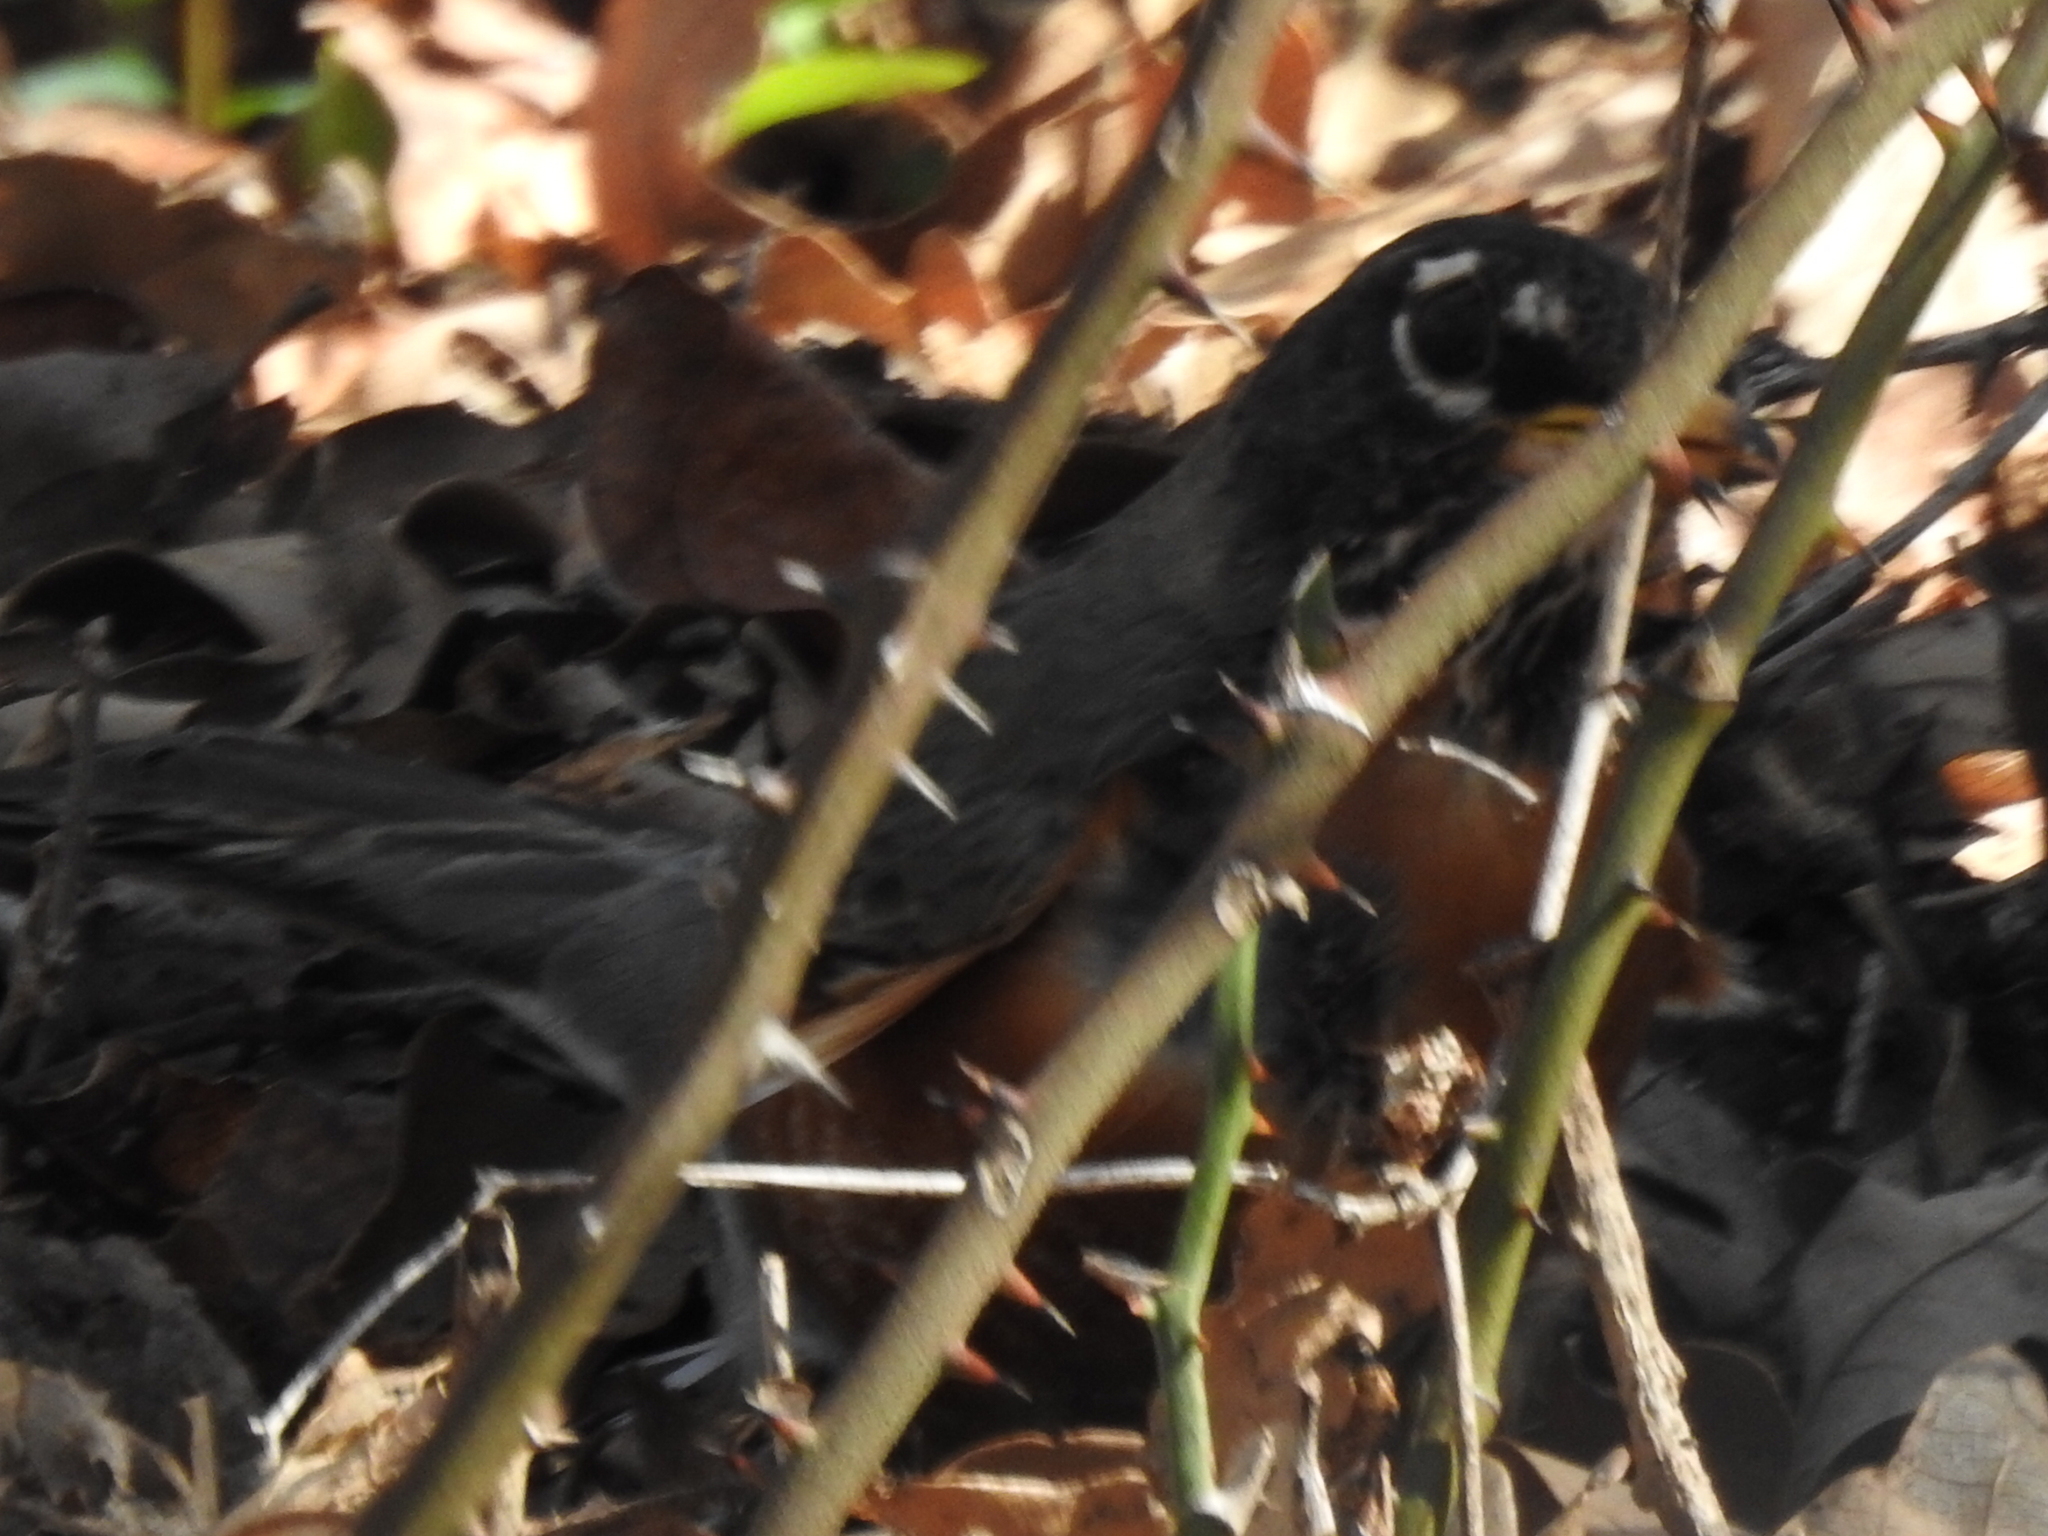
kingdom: Animalia
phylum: Chordata
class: Aves
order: Passeriformes
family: Turdidae
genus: Turdus
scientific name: Turdus migratorius
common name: American robin
